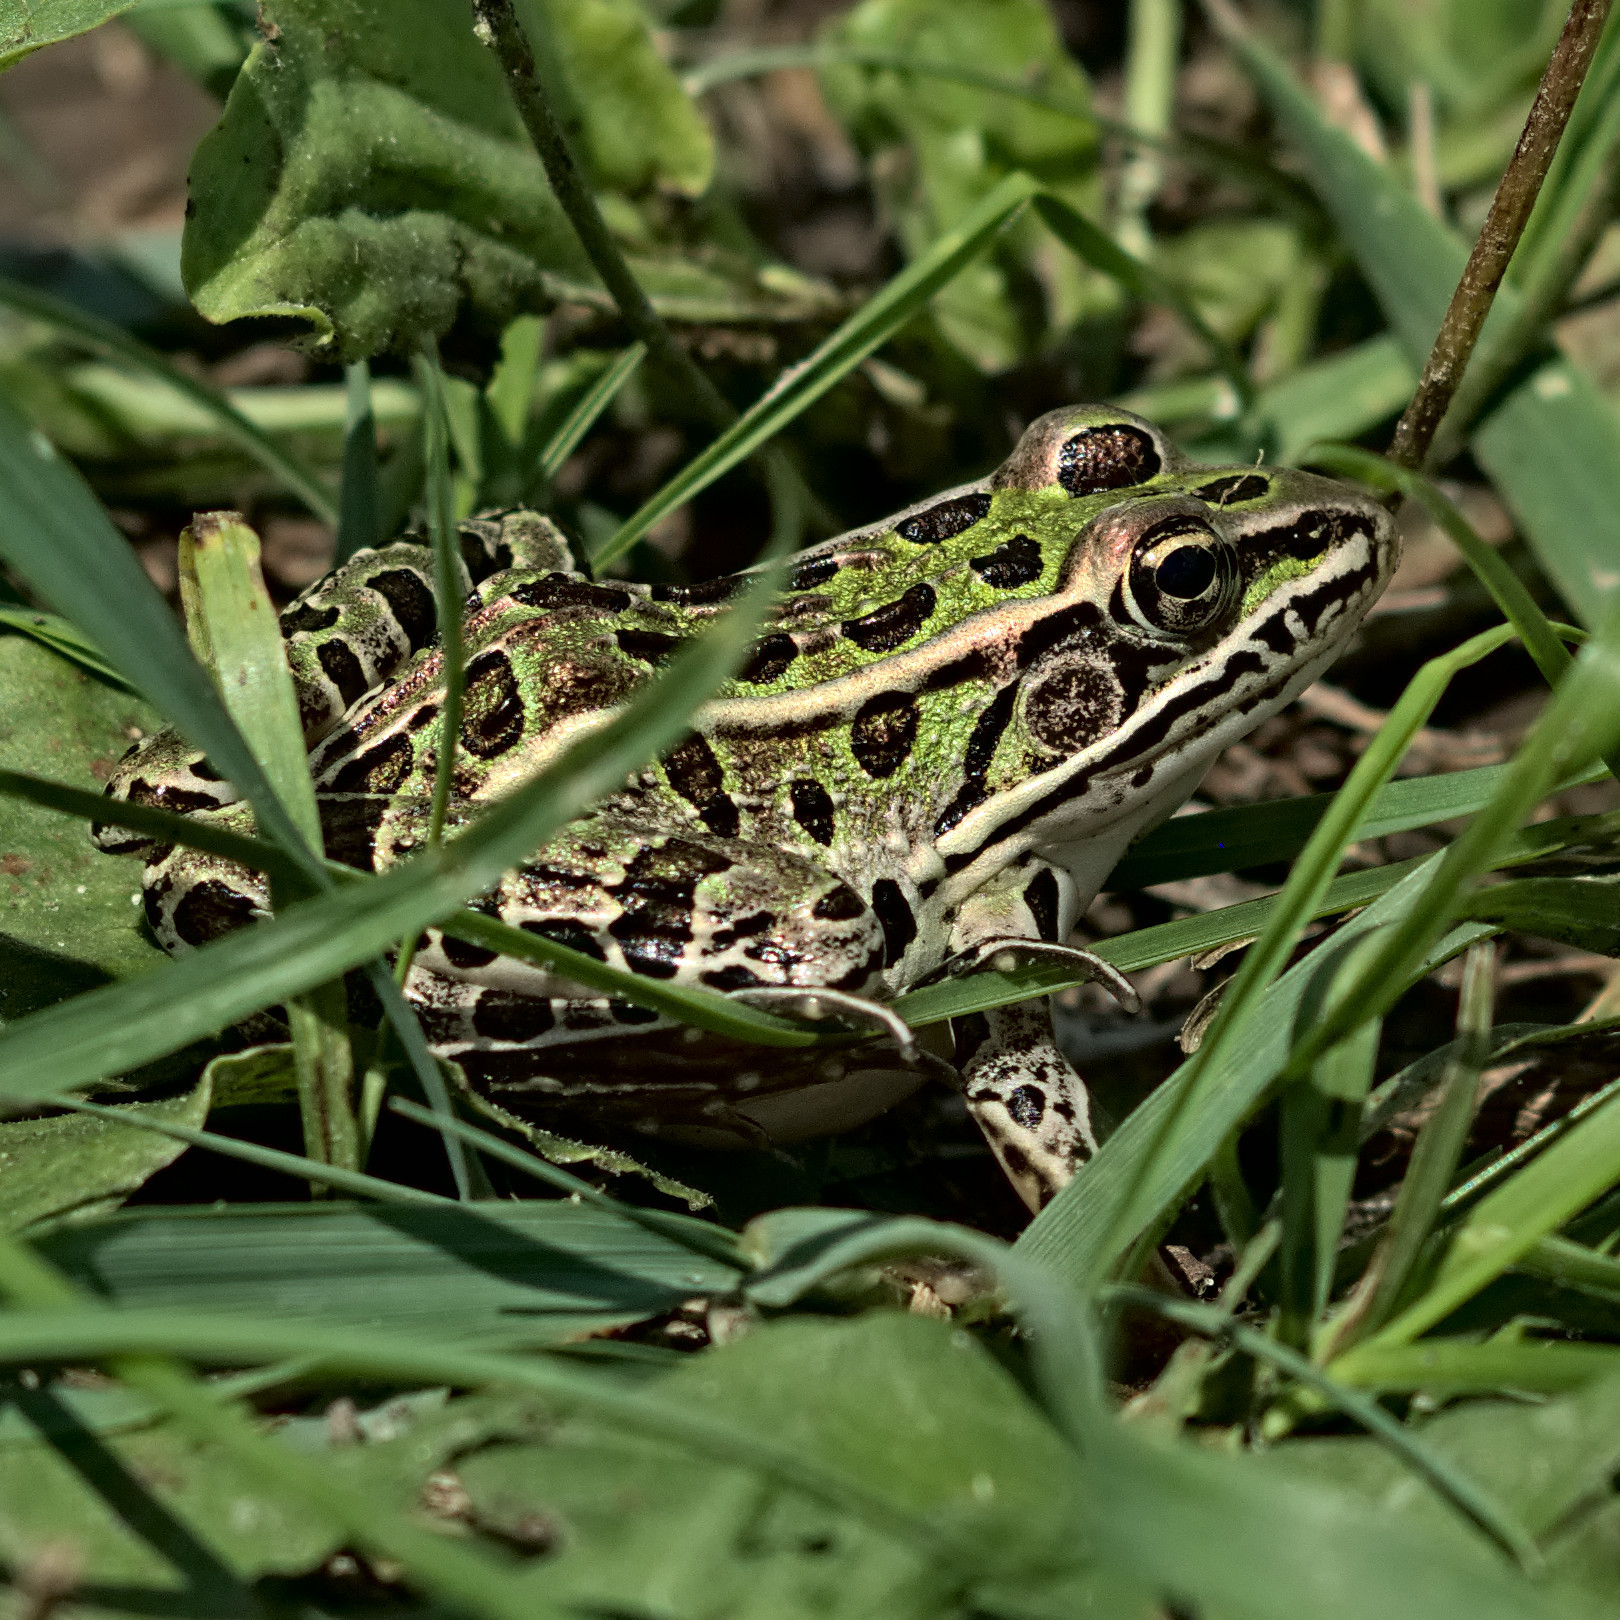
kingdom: Animalia
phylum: Chordata
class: Amphibia
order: Anura
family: Ranidae
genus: Lithobates
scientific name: Lithobates pipiens
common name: Northern leopard frog
